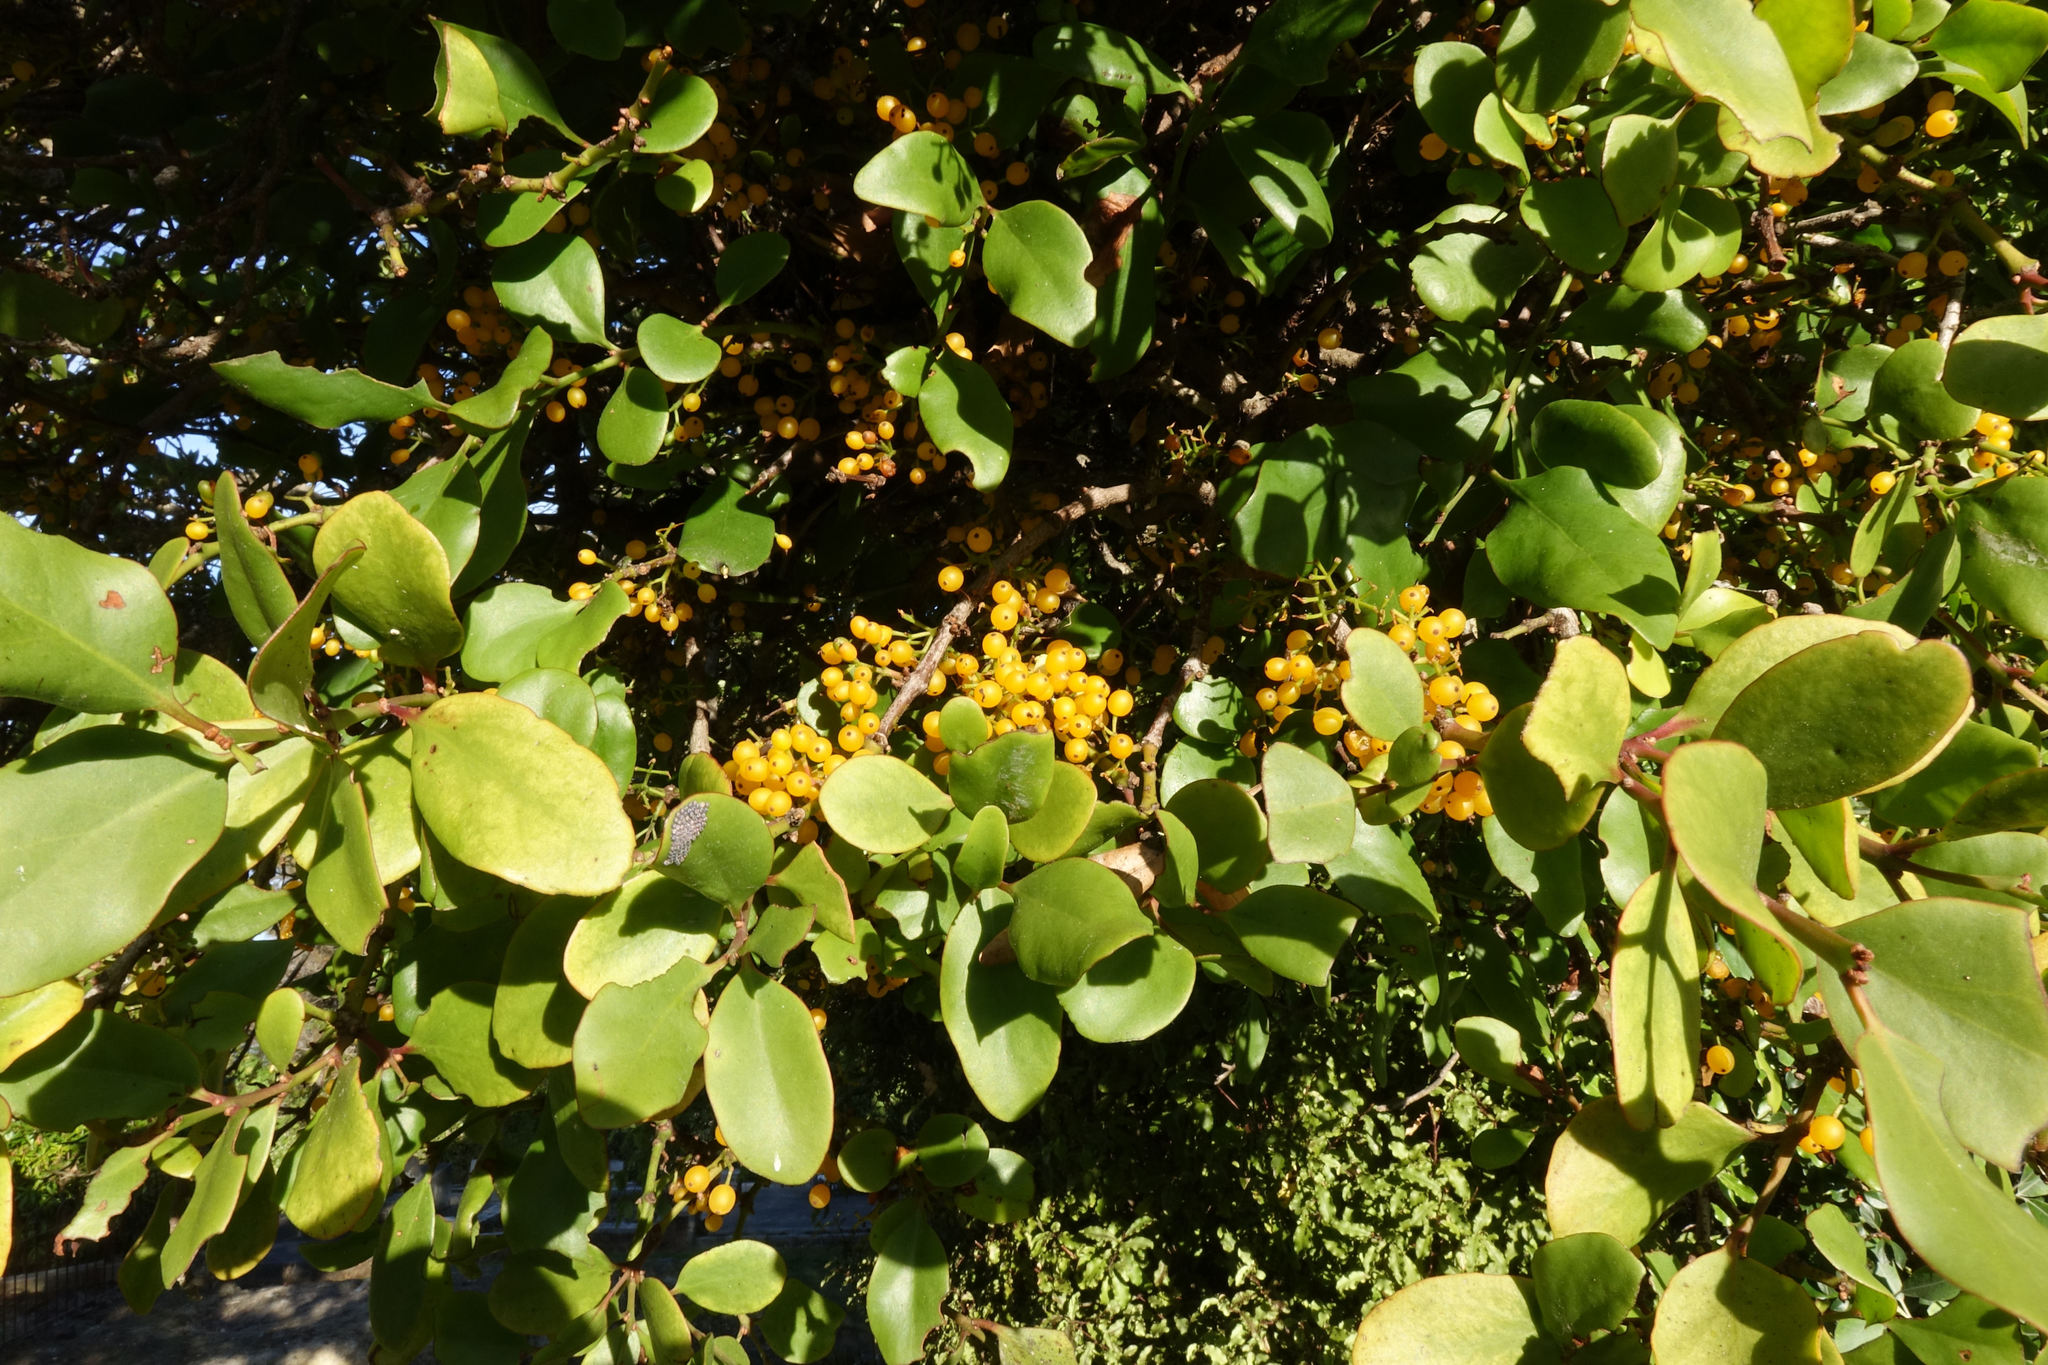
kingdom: Plantae
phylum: Tracheophyta
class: Magnoliopsida
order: Santalales
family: Loranthaceae
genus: Ileostylus
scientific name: Ileostylus micranthus
